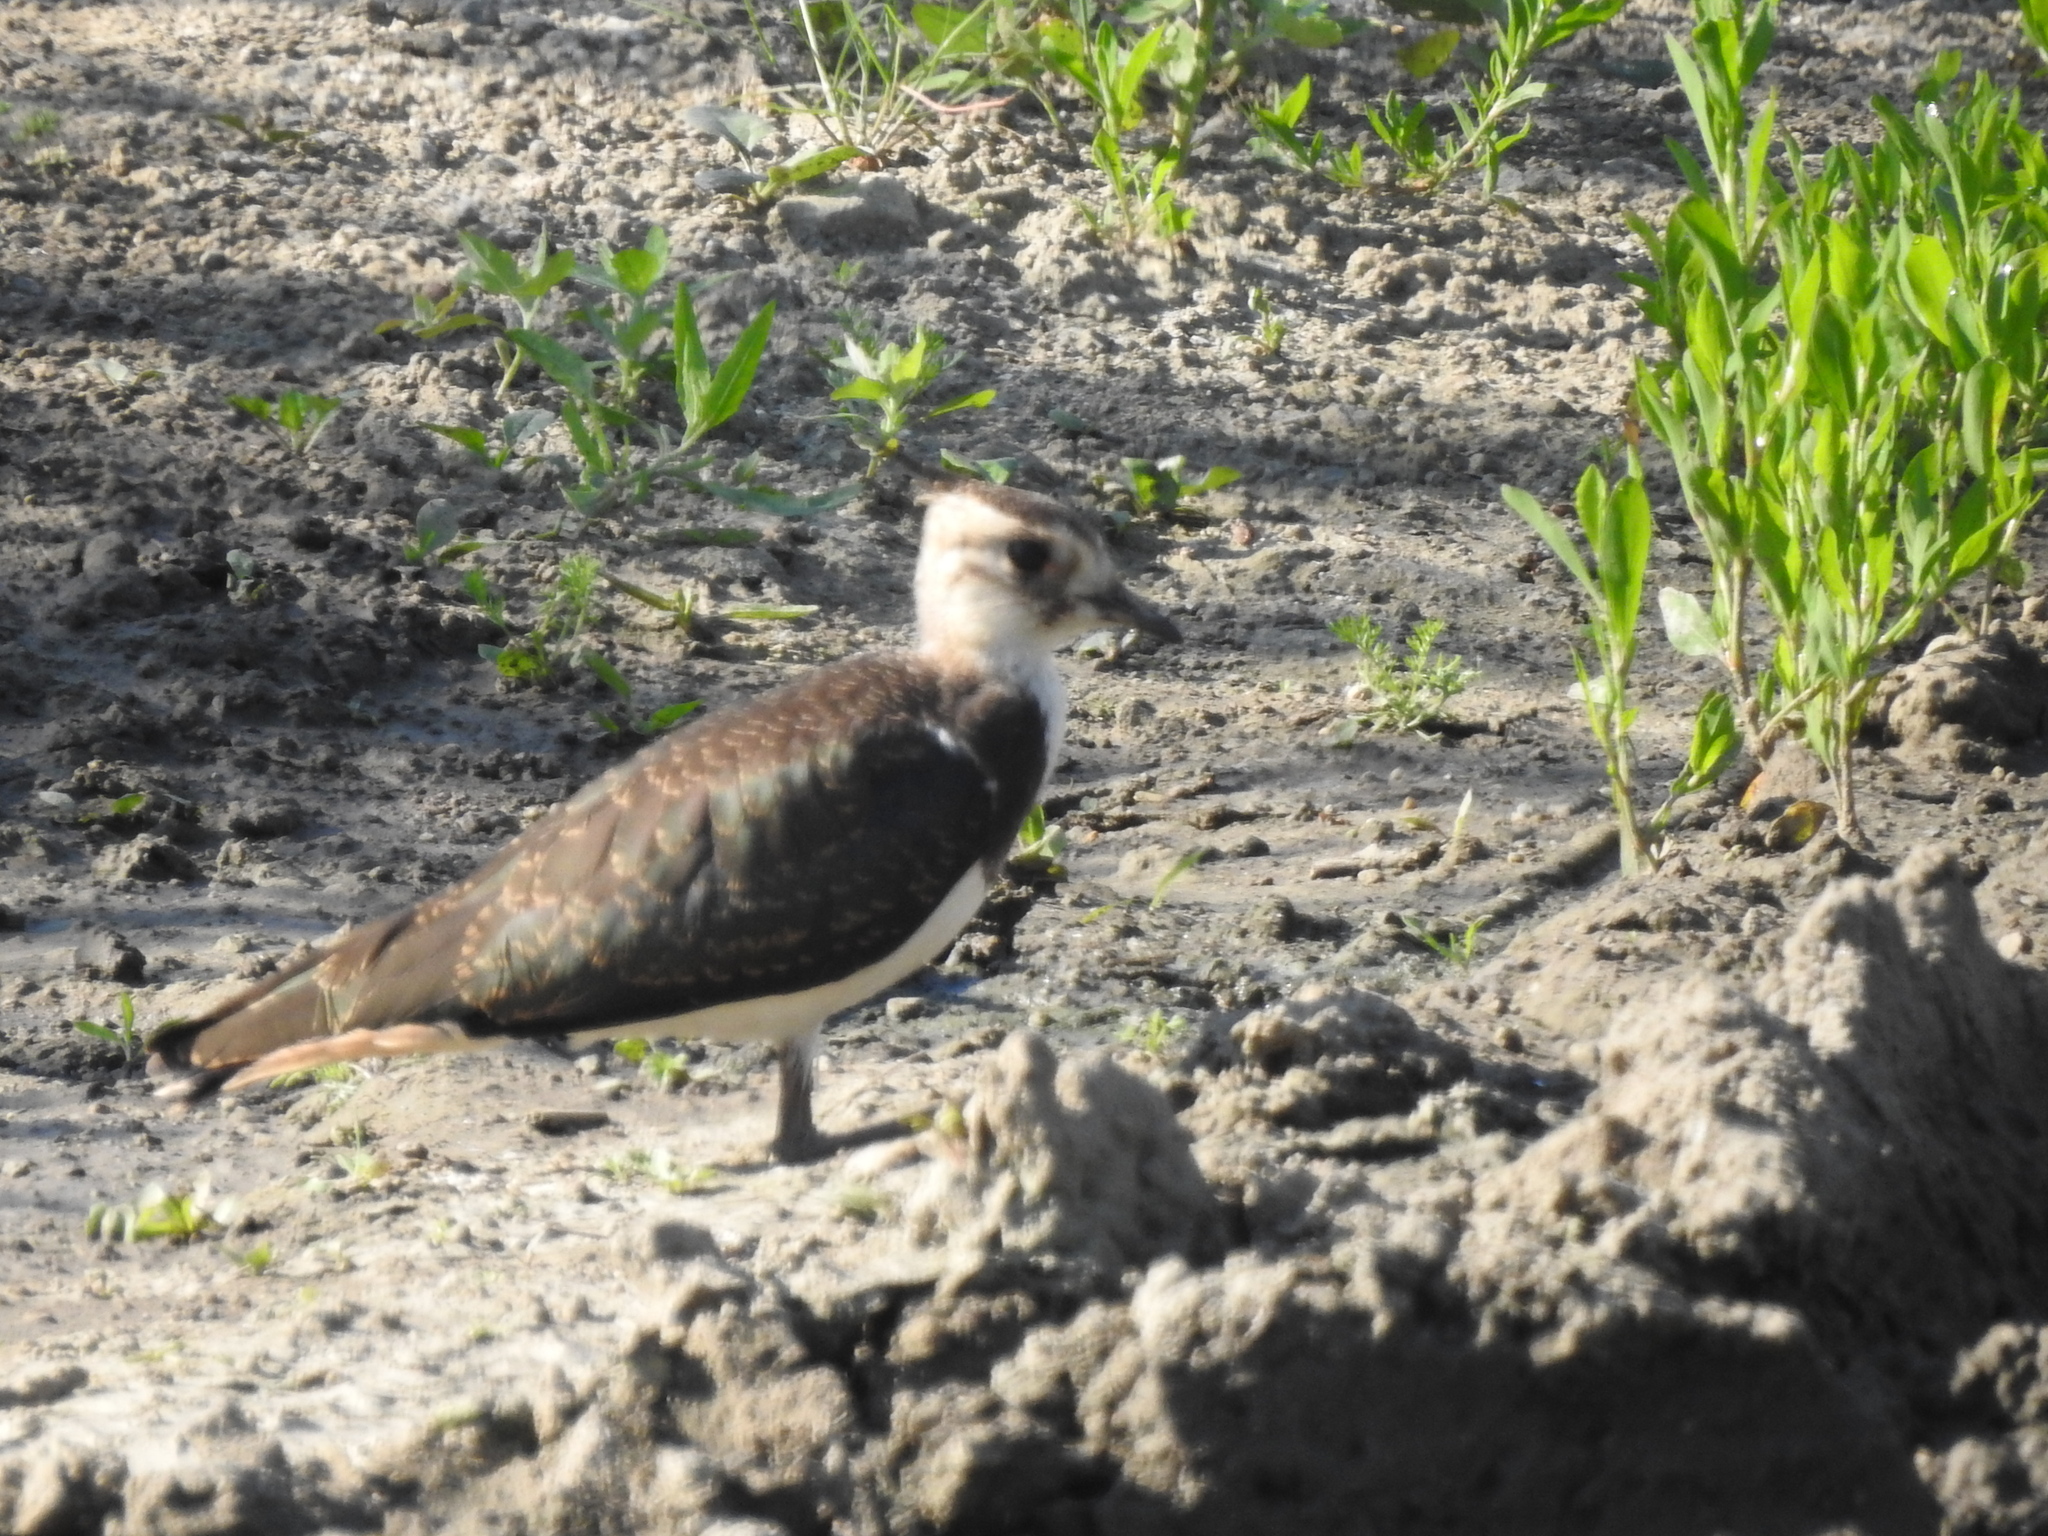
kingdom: Animalia
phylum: Chordata
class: Aves
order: Charadriiformes
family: Charadriidae
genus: Vanellus
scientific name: Vanellus vanellus
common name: Northern lapwing
